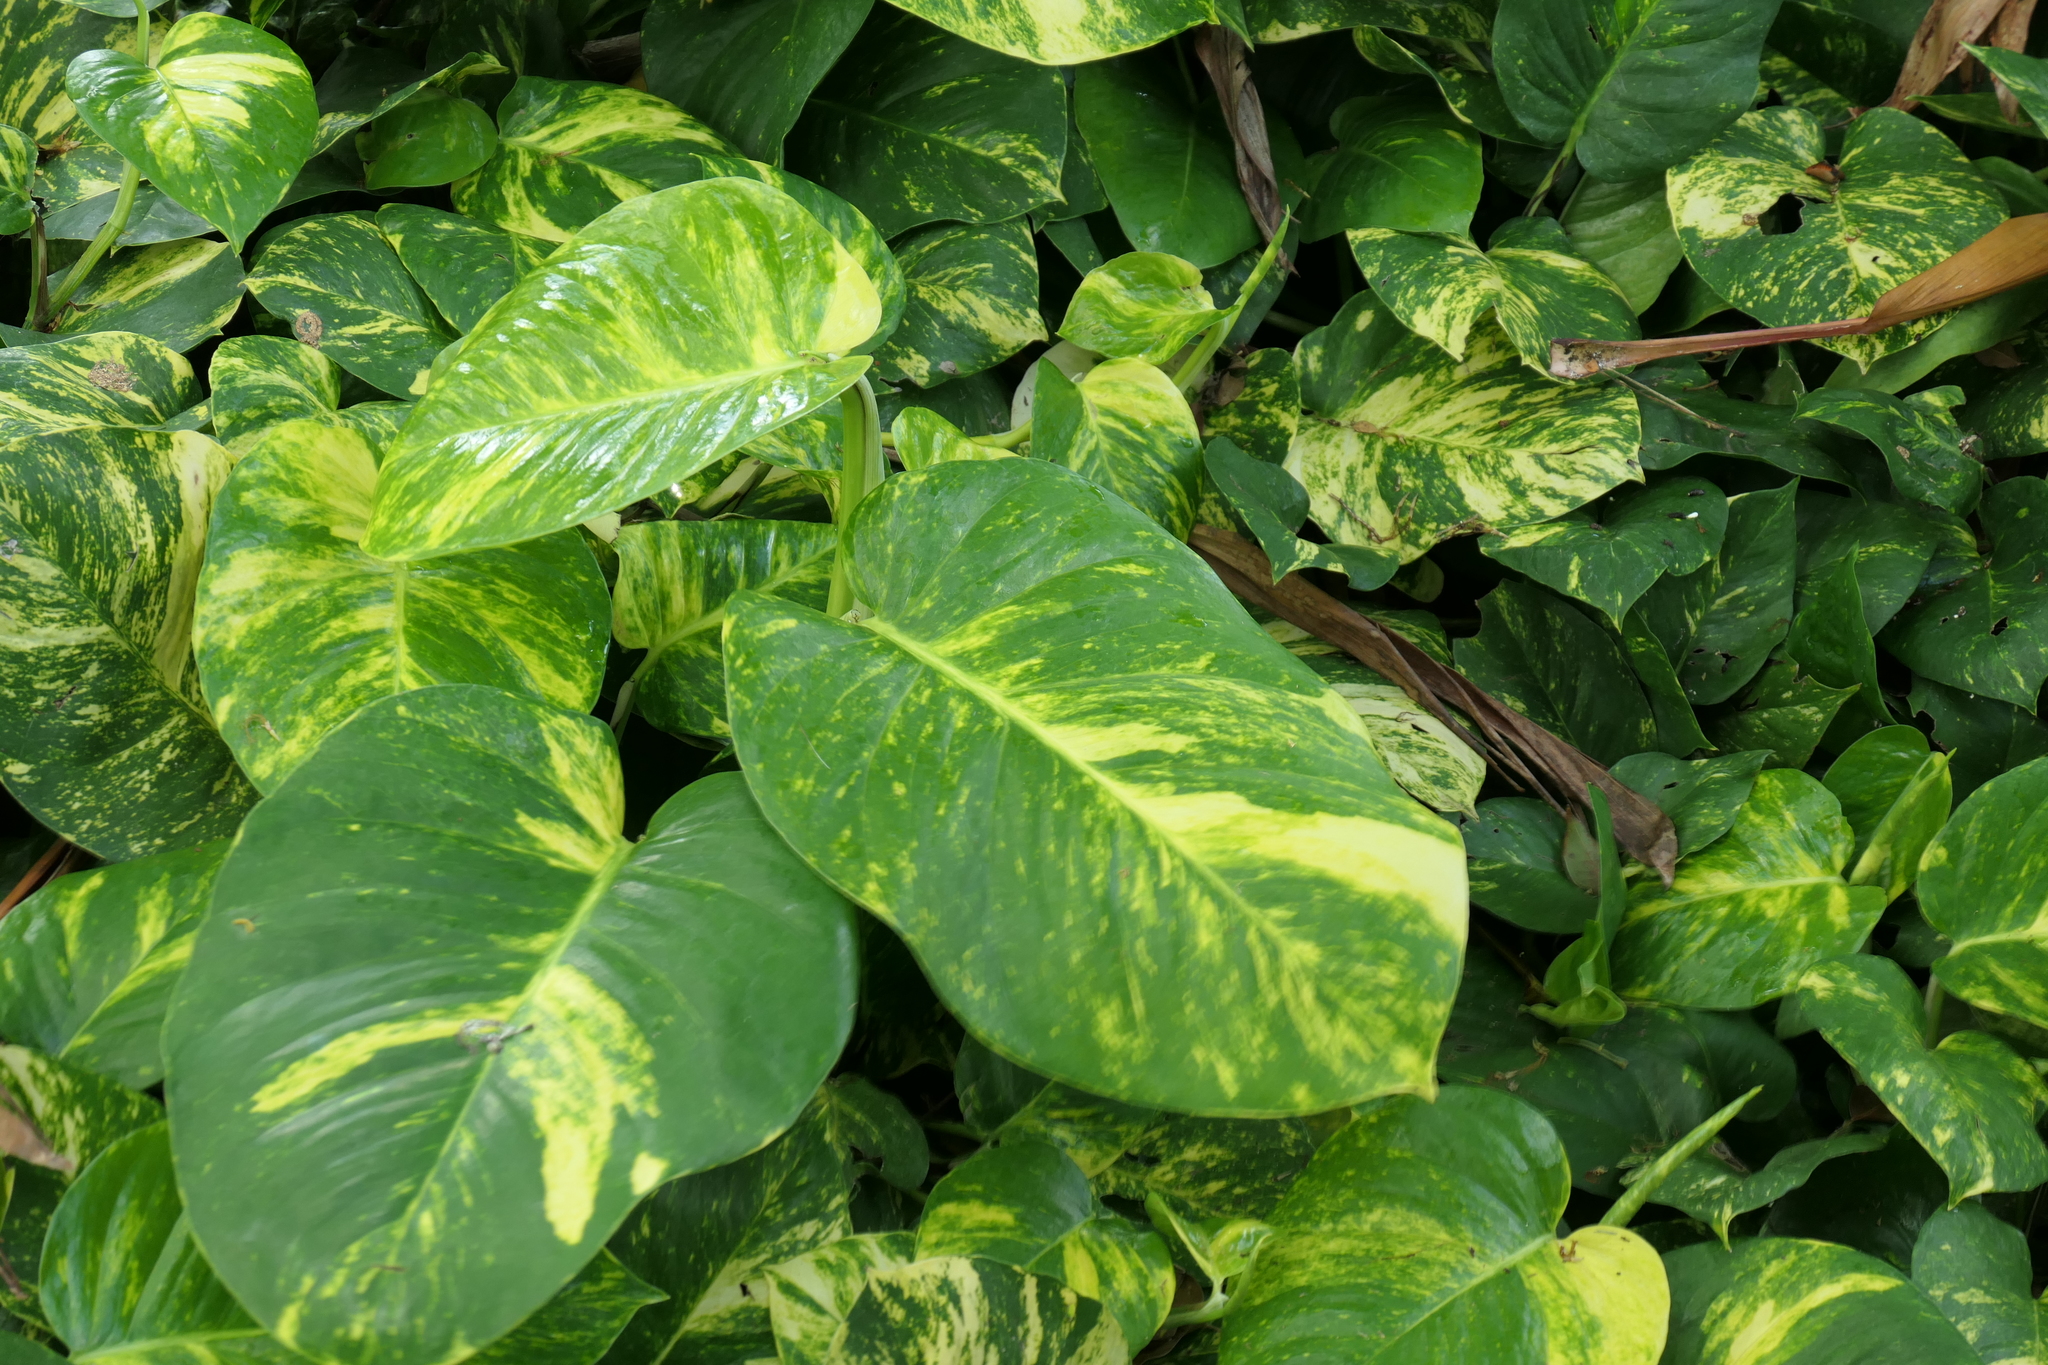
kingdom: Plantae
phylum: Tracheophyta
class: Liliopsida
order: Alismatales
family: Araceae
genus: Epipremnum
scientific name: Epipremnum aureum
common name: Golden hunter's-robe
